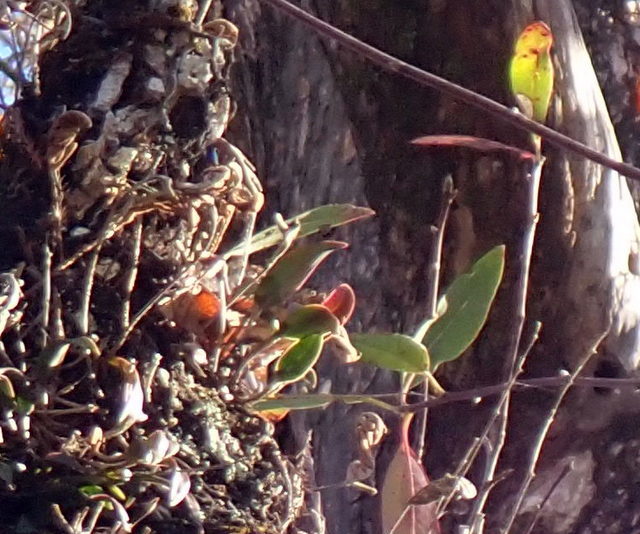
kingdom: Plantae
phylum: Tracheophyta
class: Liliopsida
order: Asparagales
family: Orchidaceae
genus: Epidendrum
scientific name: Epidendrum conopseum
